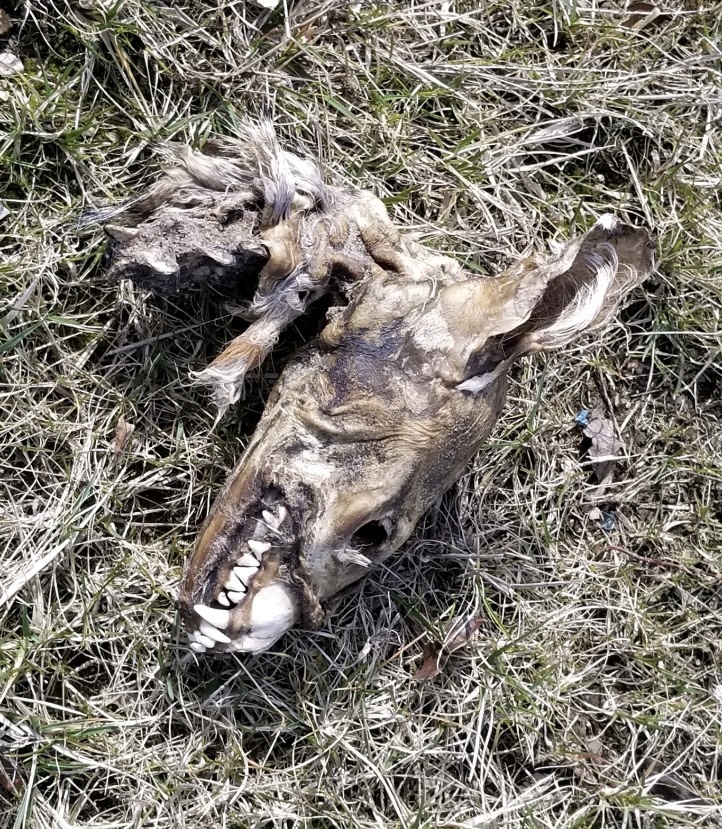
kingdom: Animalia
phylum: Chordata
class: Mammalia
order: Carnivora
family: Canidae
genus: Canis
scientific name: Canis latrans
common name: Coyote
